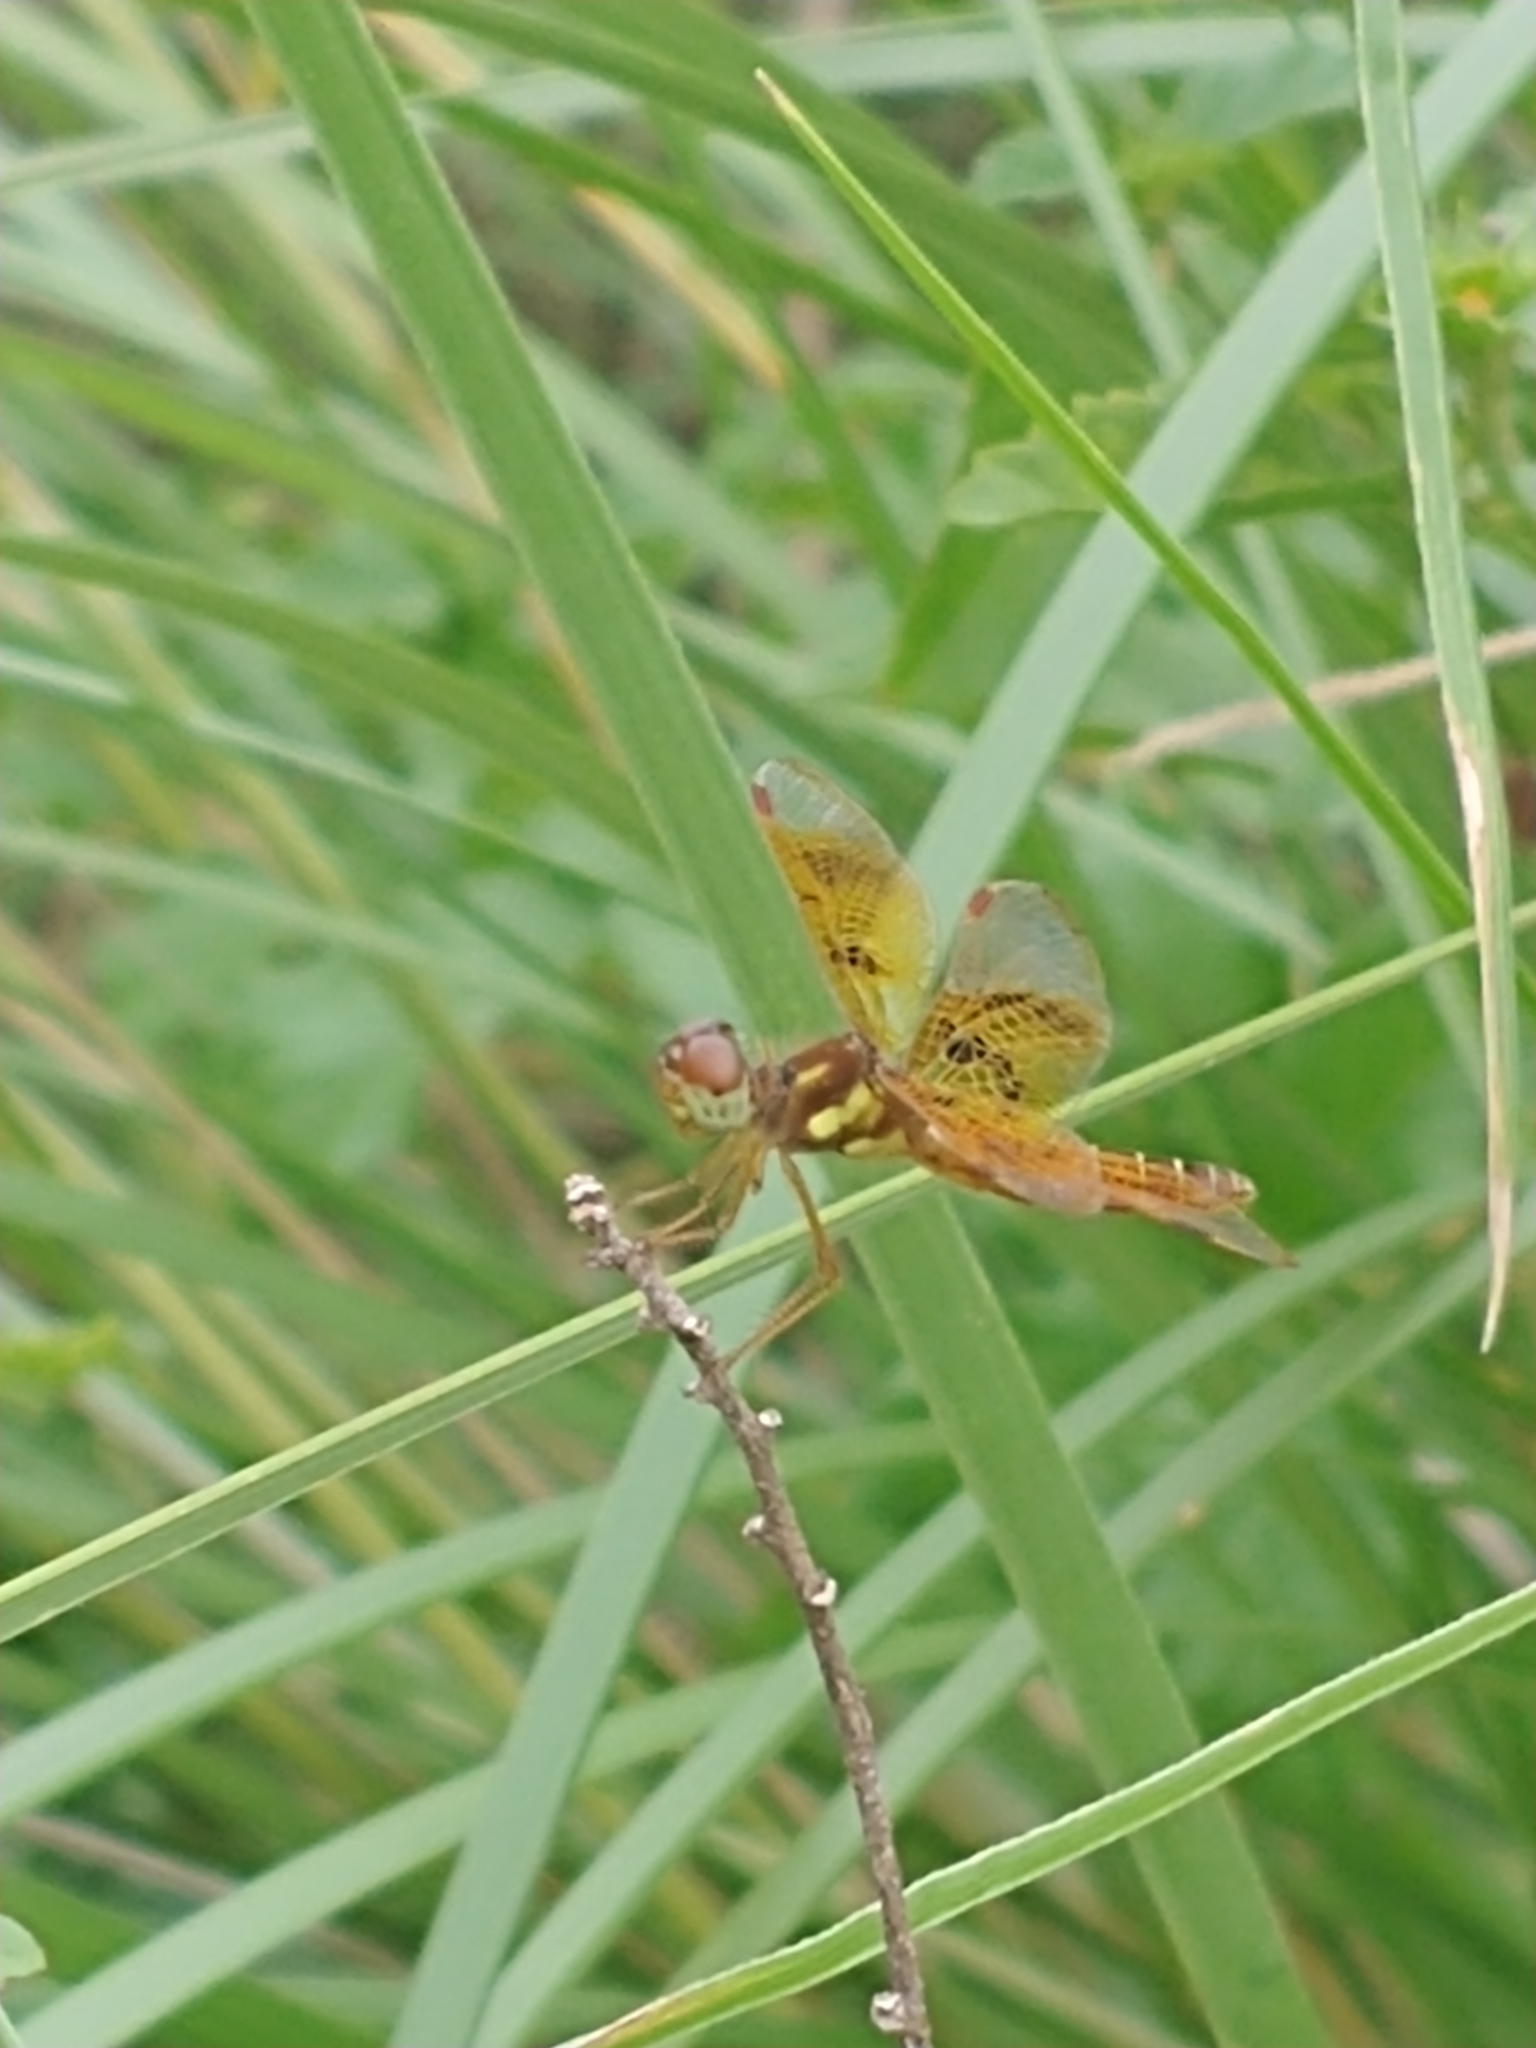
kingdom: Animalia
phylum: Arthropoda
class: Insecta
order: Odonata
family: Libellulidae
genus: Perithemis
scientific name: Perithemis tenera
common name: Eastern amberwing
